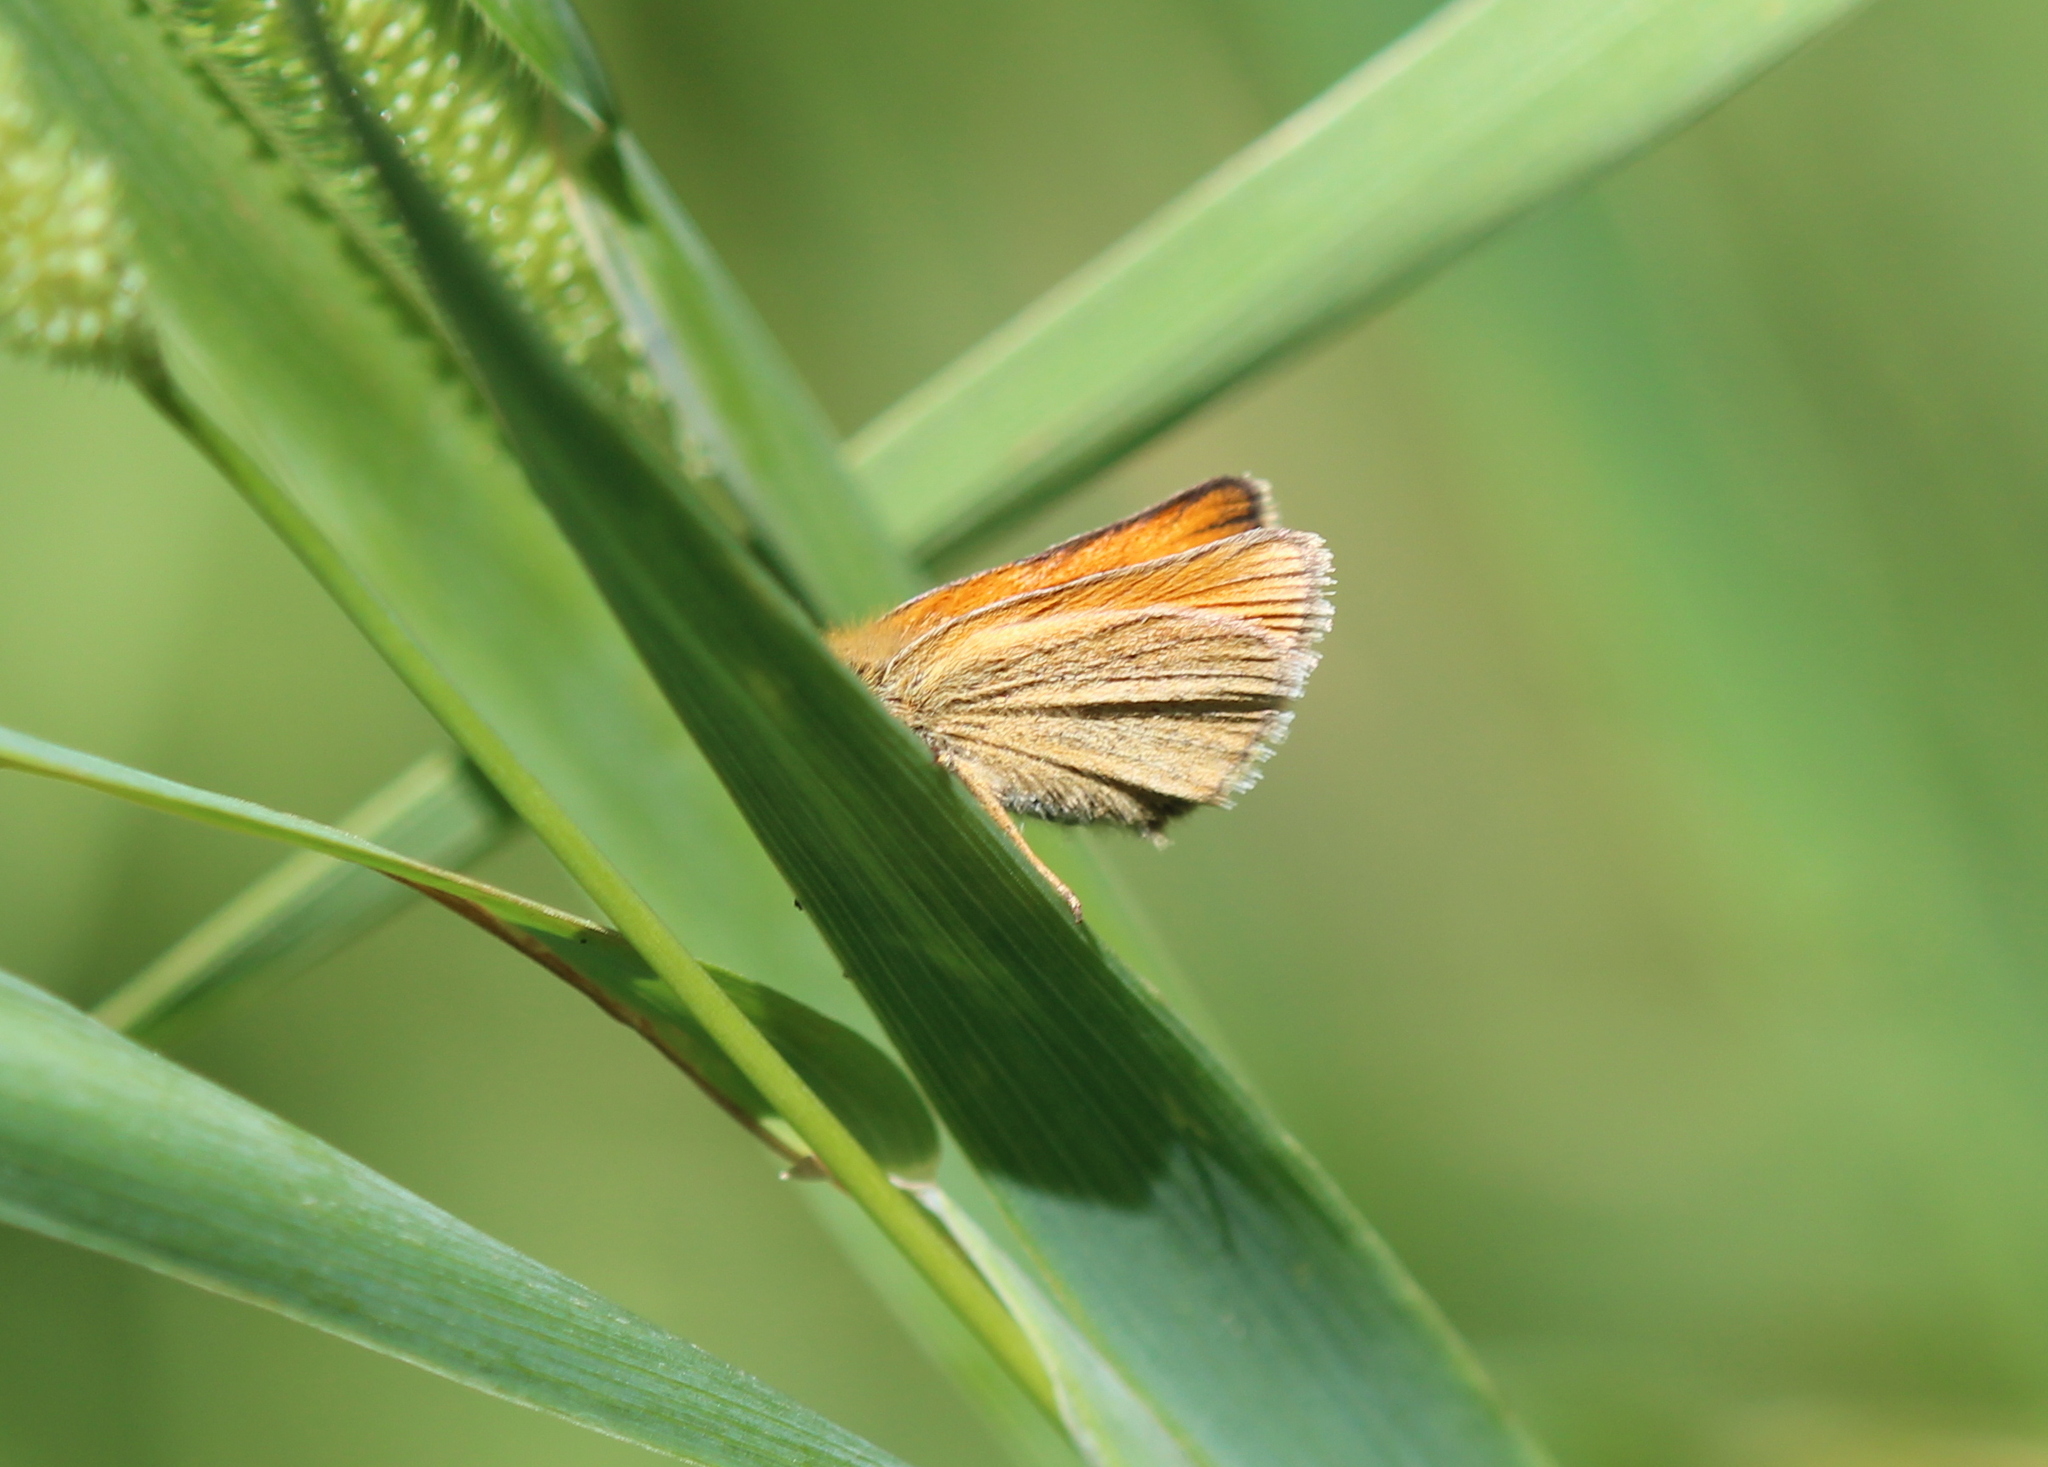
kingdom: Animalia
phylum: Arthropoda
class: Insecta
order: Lepidoptera
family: Hesperiidae
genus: Thymelicus
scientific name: Thymelicus lineola
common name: Essex skipper
